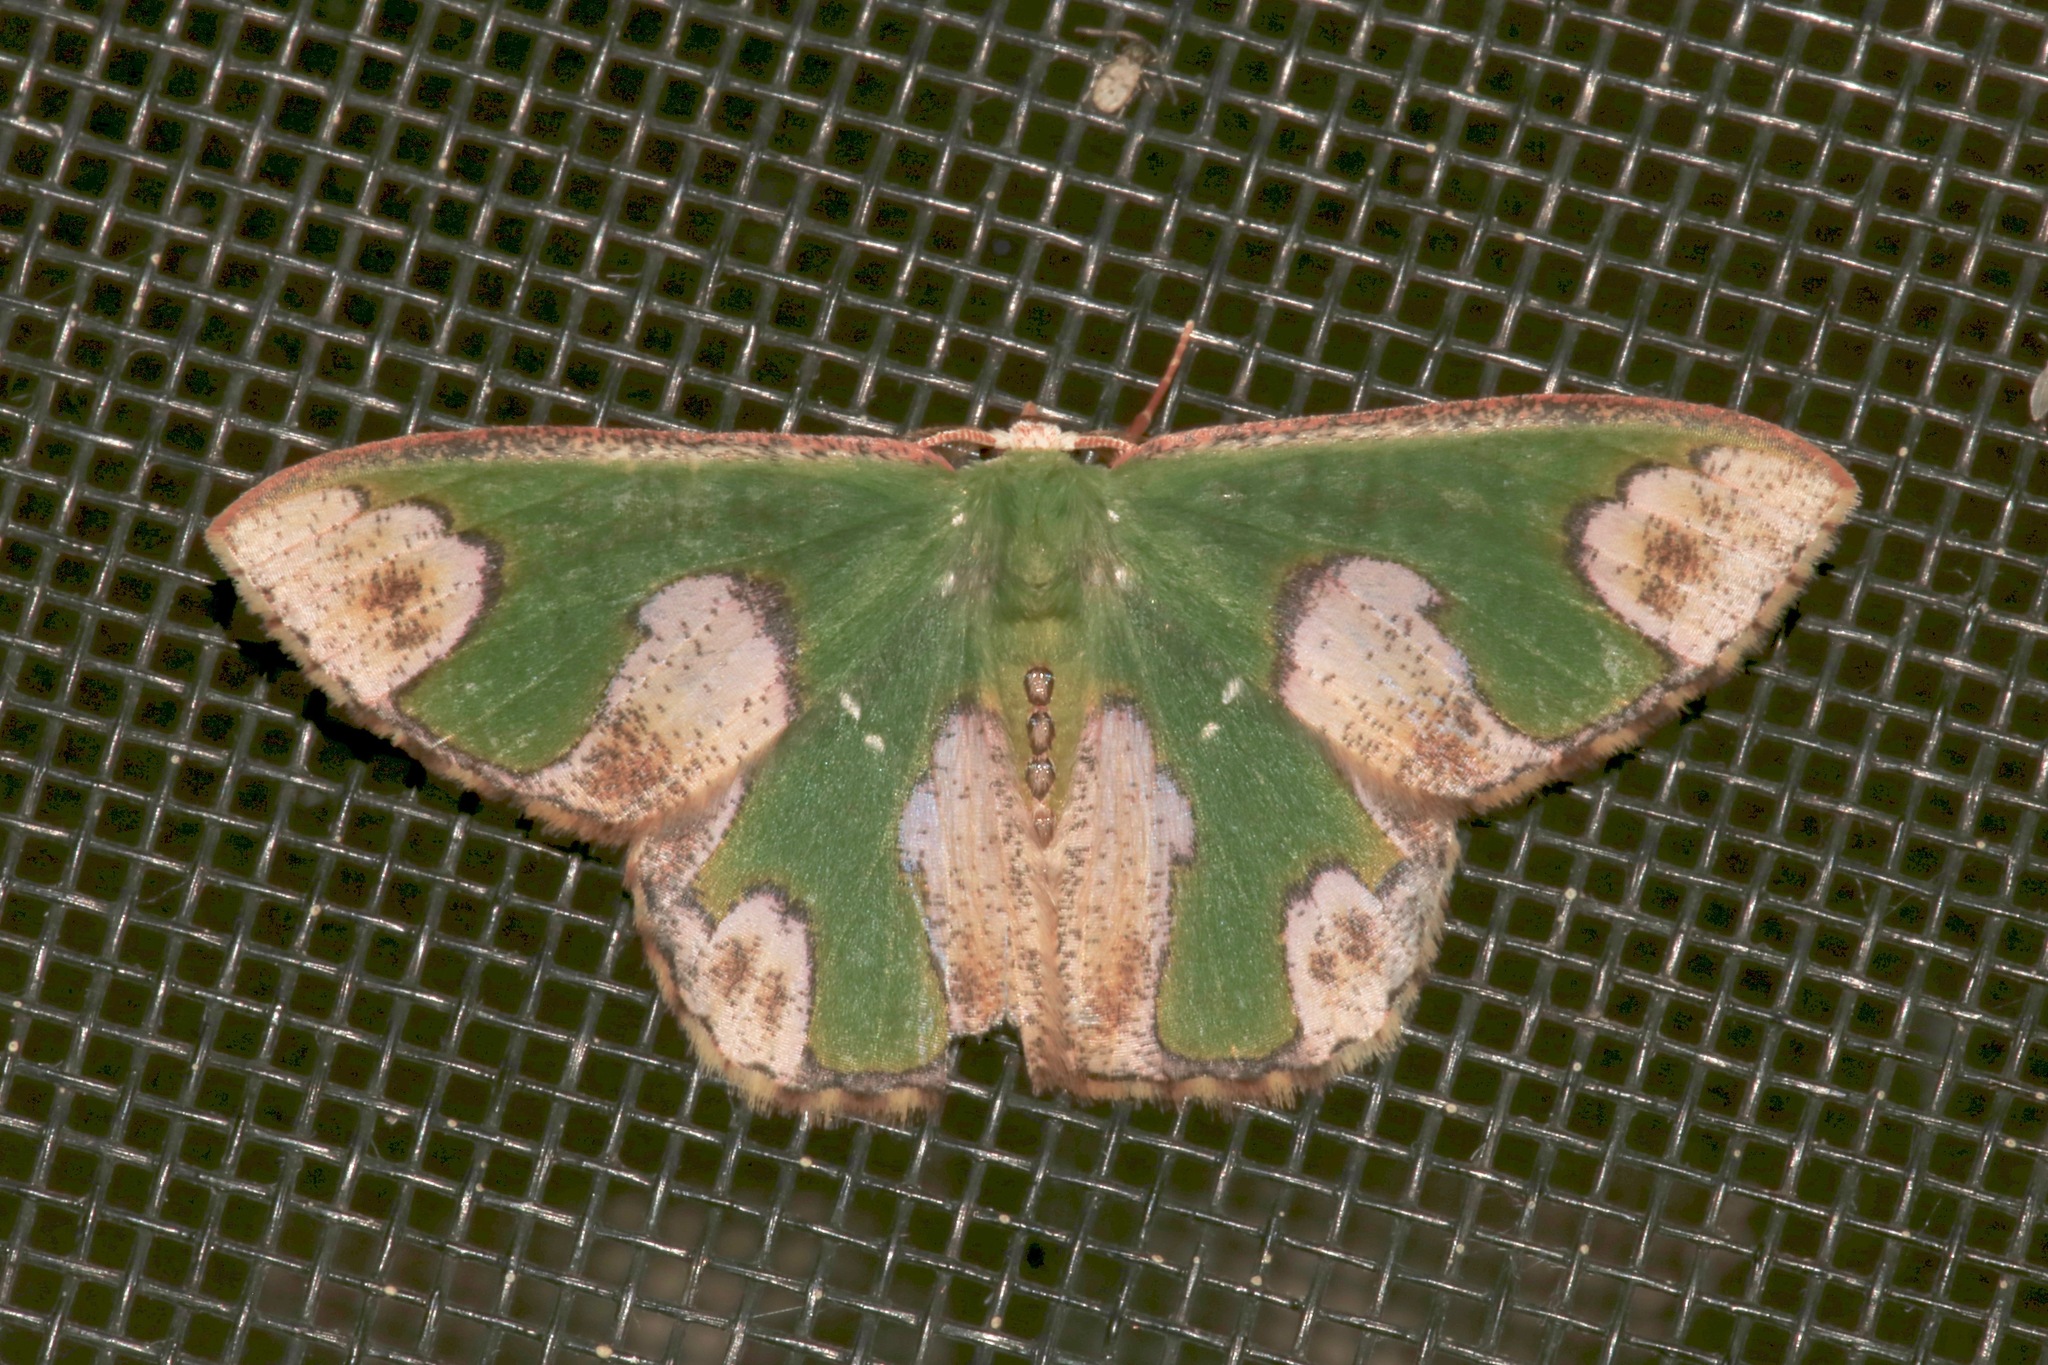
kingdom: Animalia
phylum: Arthropoda
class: Insecta
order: Lepidoptera
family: Geometridae
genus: Oospila
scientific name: Oospila ruptimacula
